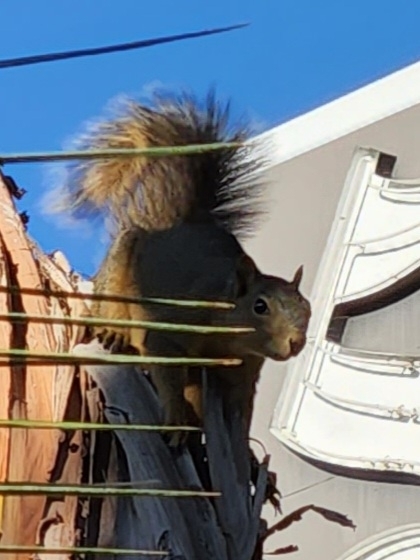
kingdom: Animalia
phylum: Chordata
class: Mammalia
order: Rodentia
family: Sciuridae
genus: Sciurus
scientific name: Sciurus niger
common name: Fox squirrel
